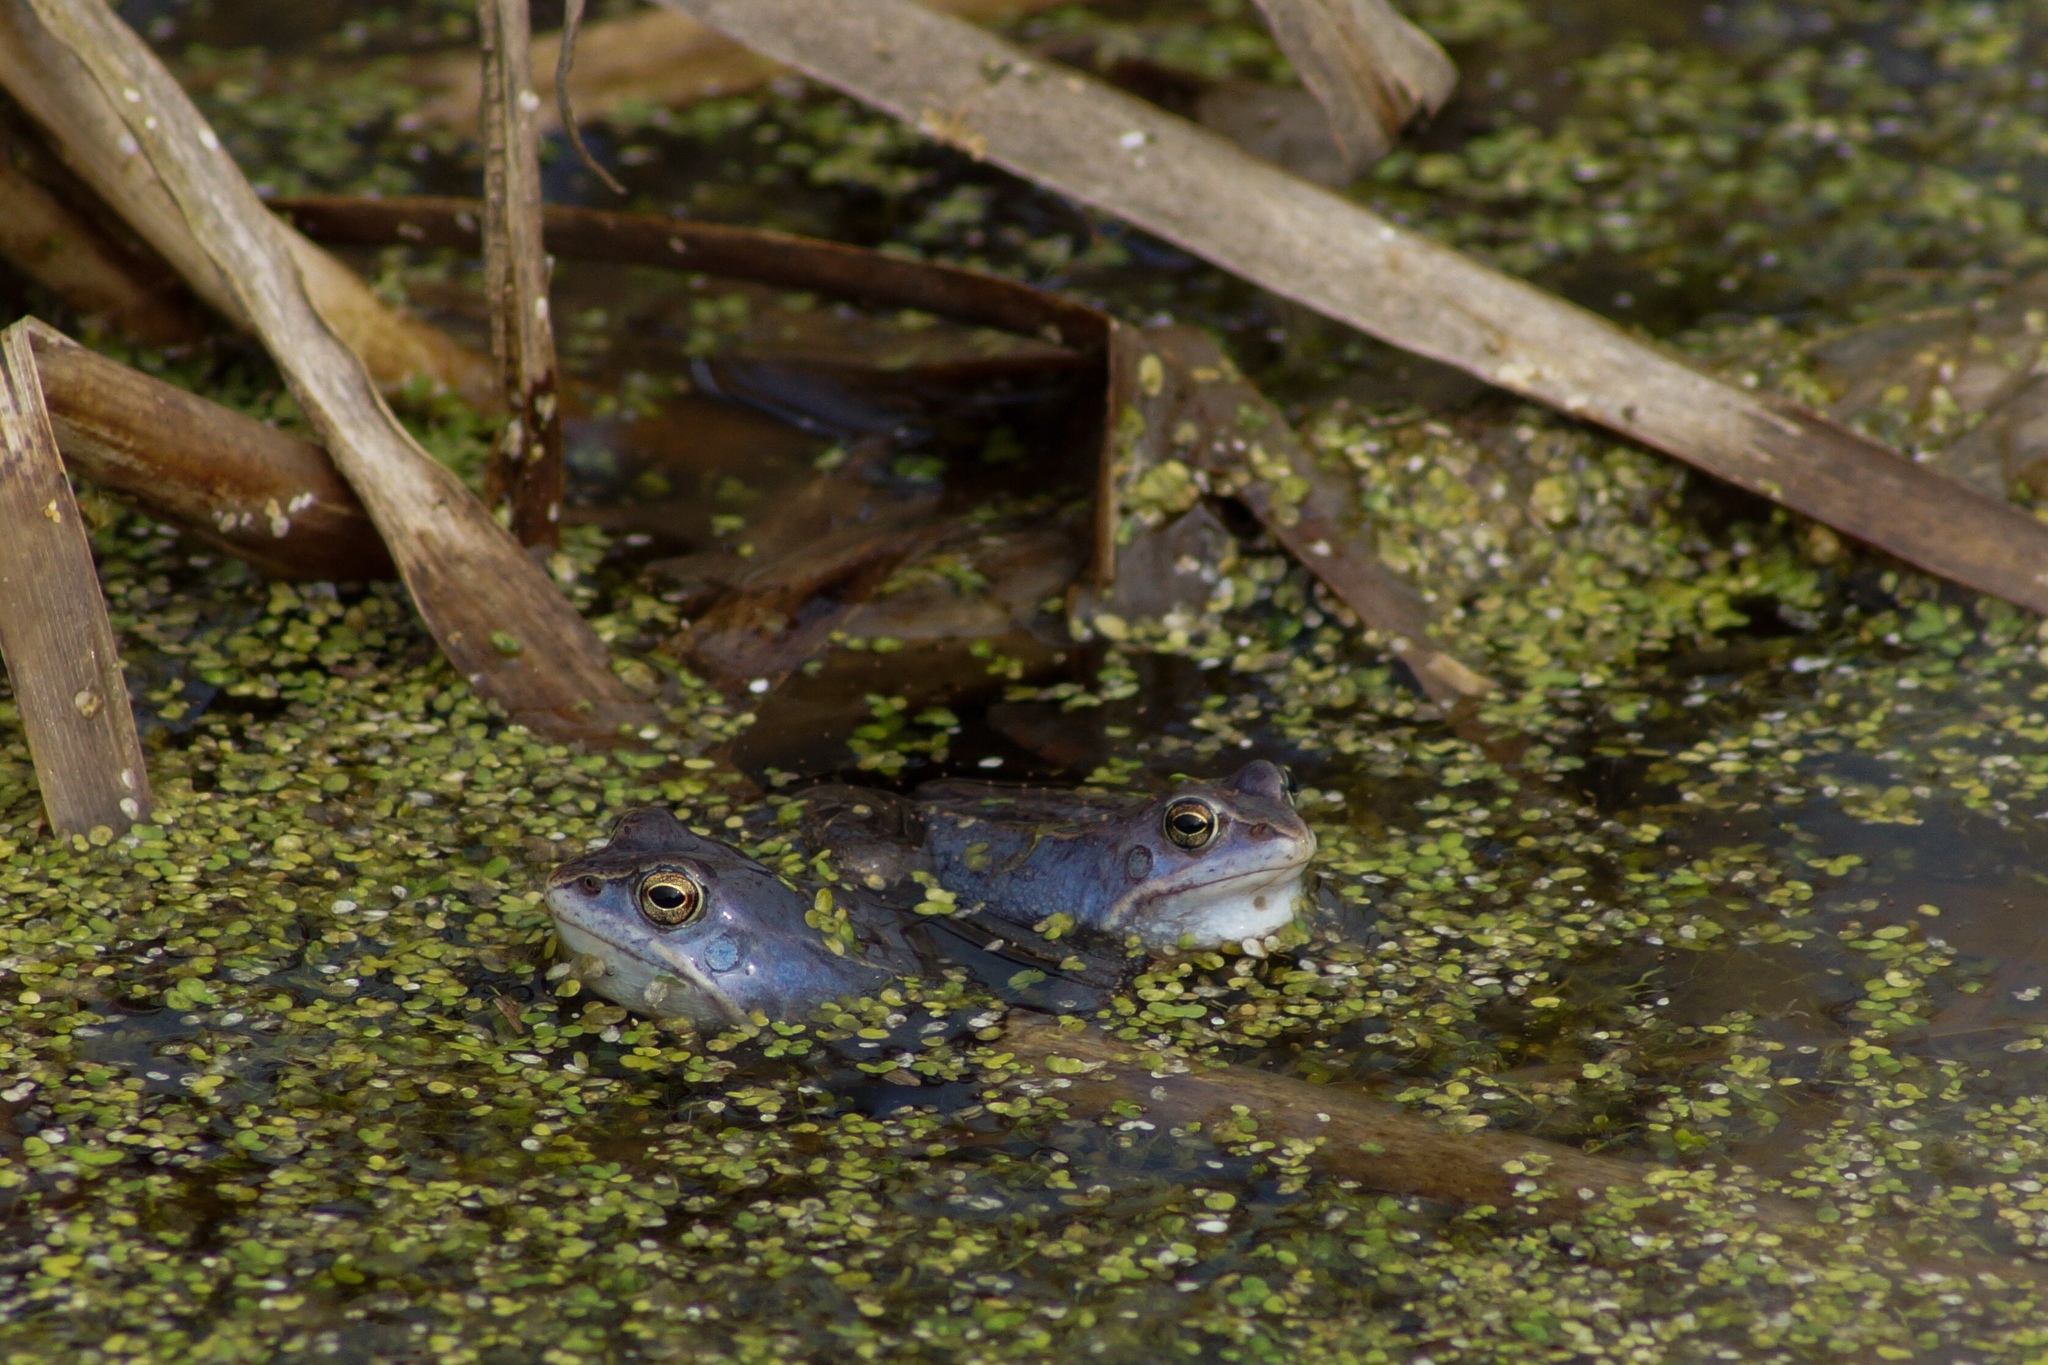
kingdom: Animalia
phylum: Chordata
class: Amphibia
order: Anura
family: Ranidae
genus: Rana
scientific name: Rana arvalis
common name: Moor frog
